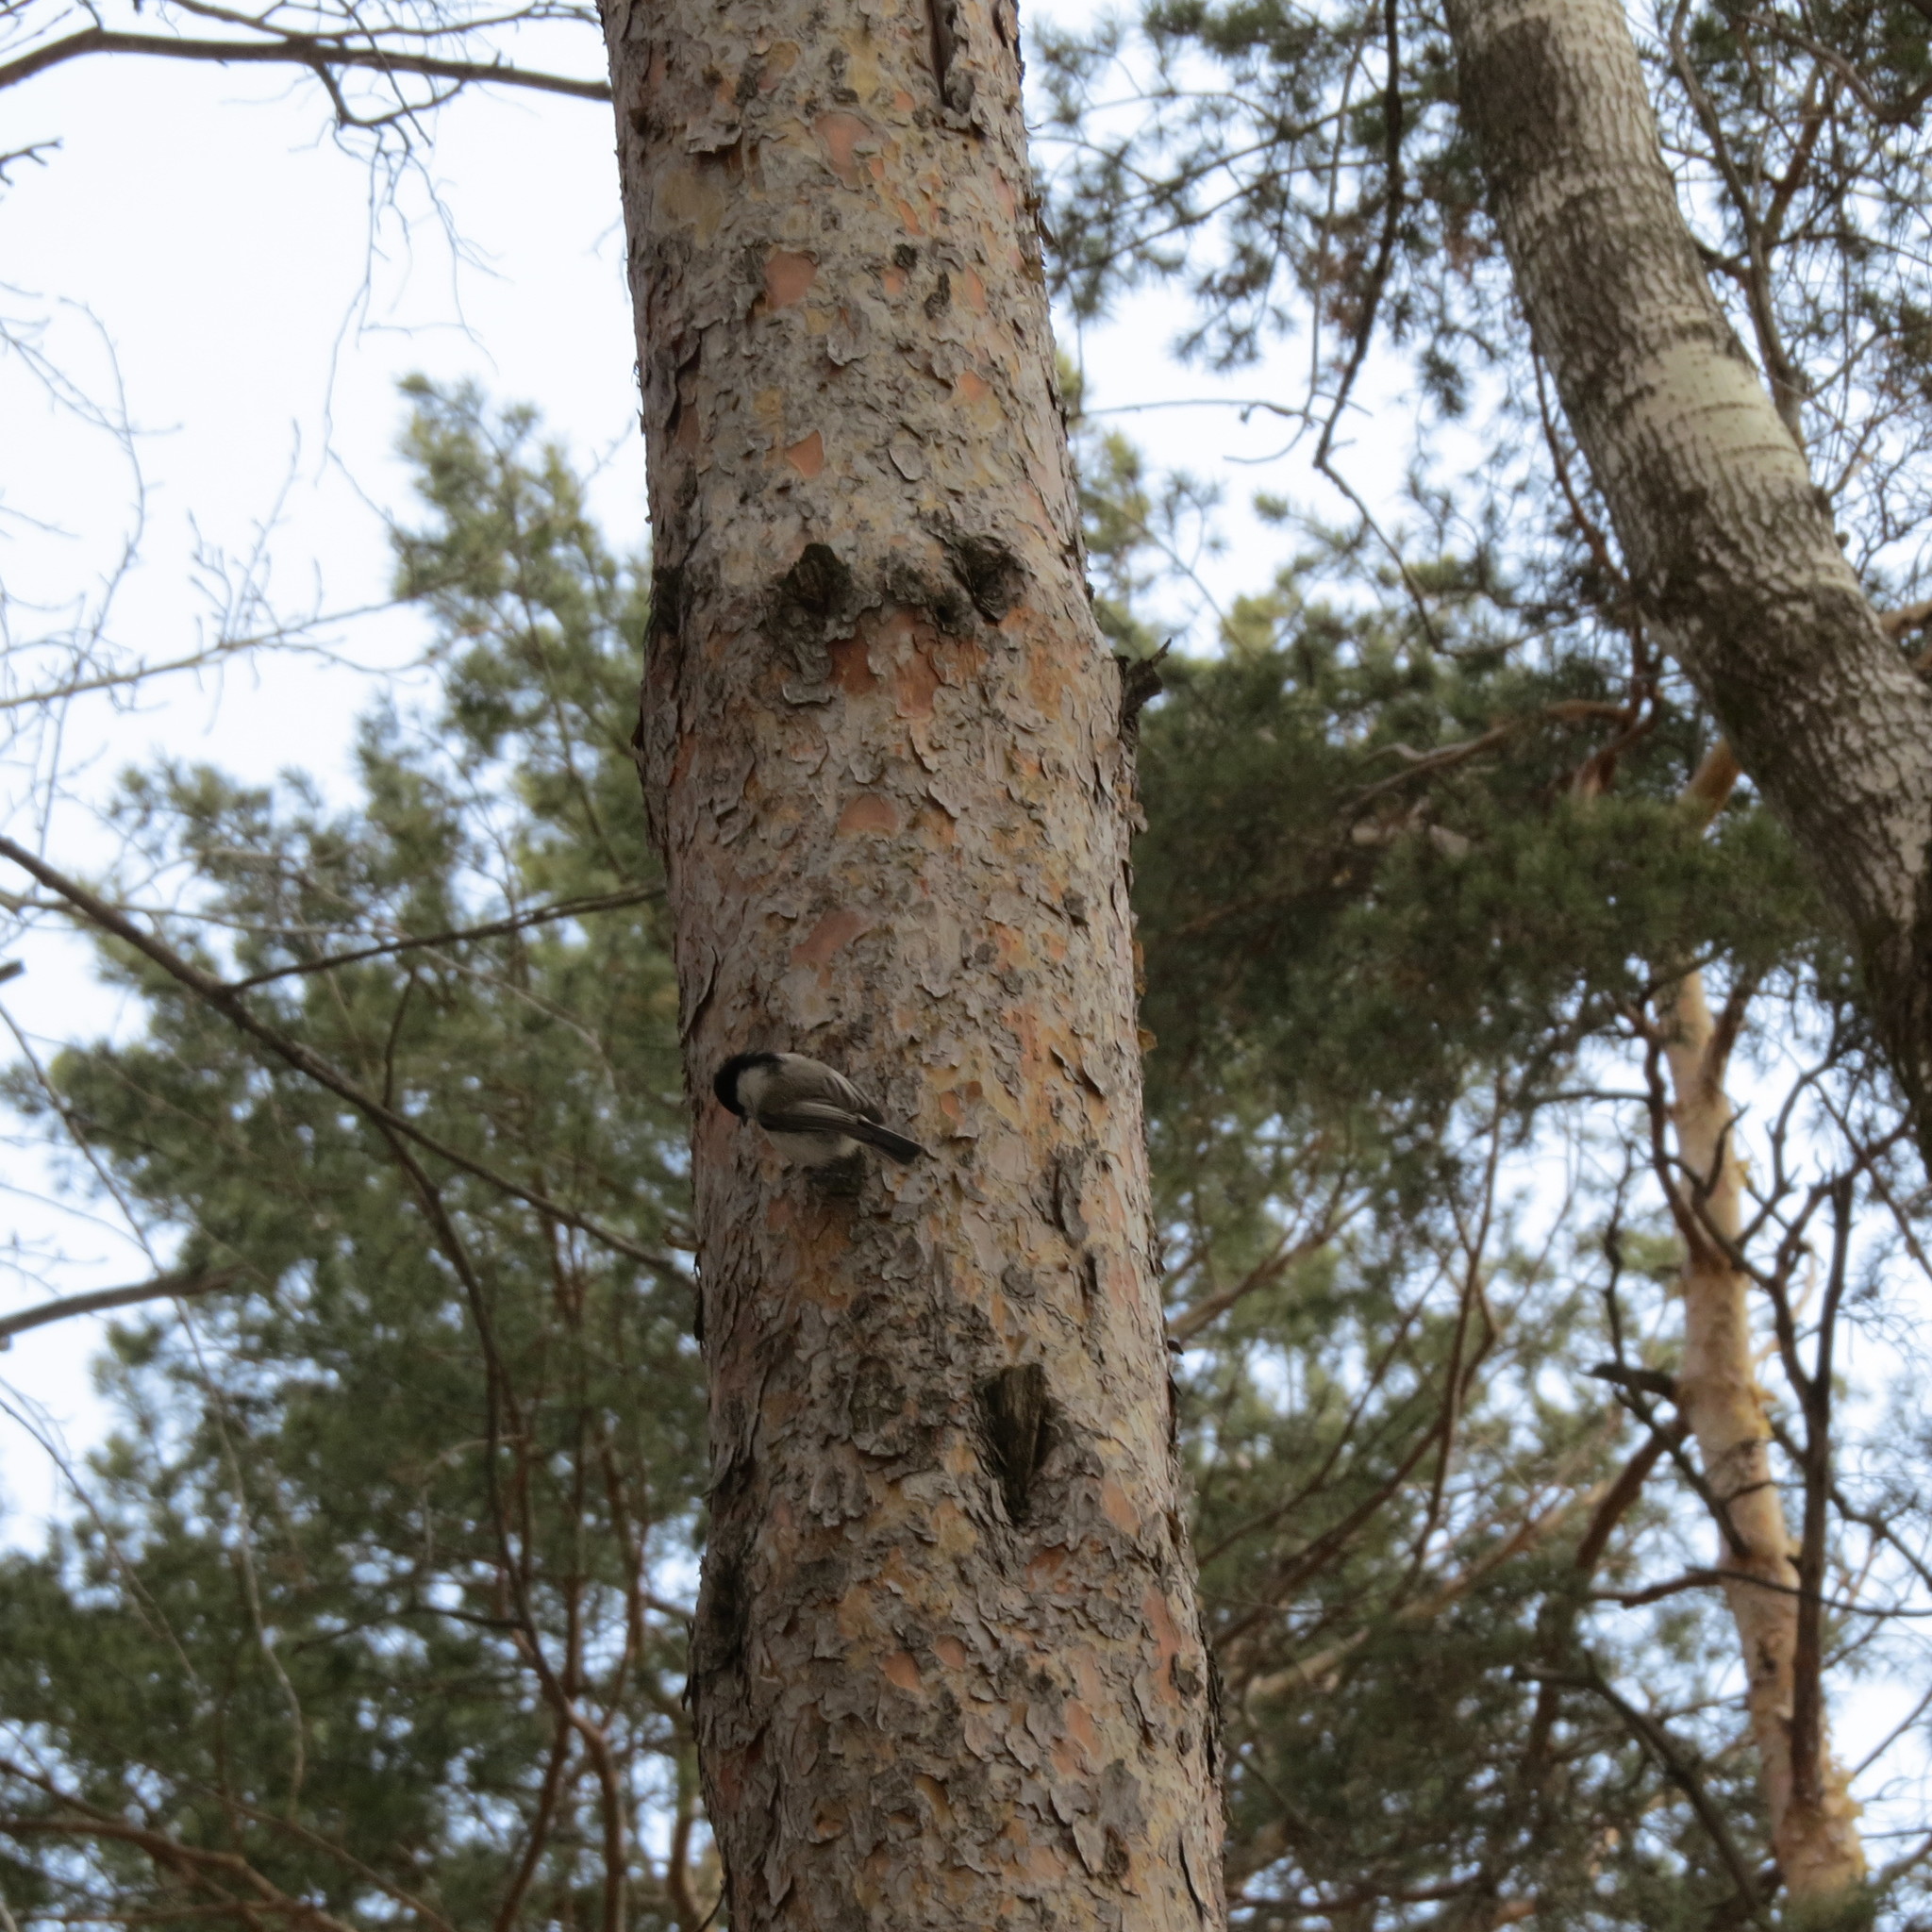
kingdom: Animalia
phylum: Chordata
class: Aves
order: Passeriformes
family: Paridae
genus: Poecile
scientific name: Poecile montanus
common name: Willow tit
